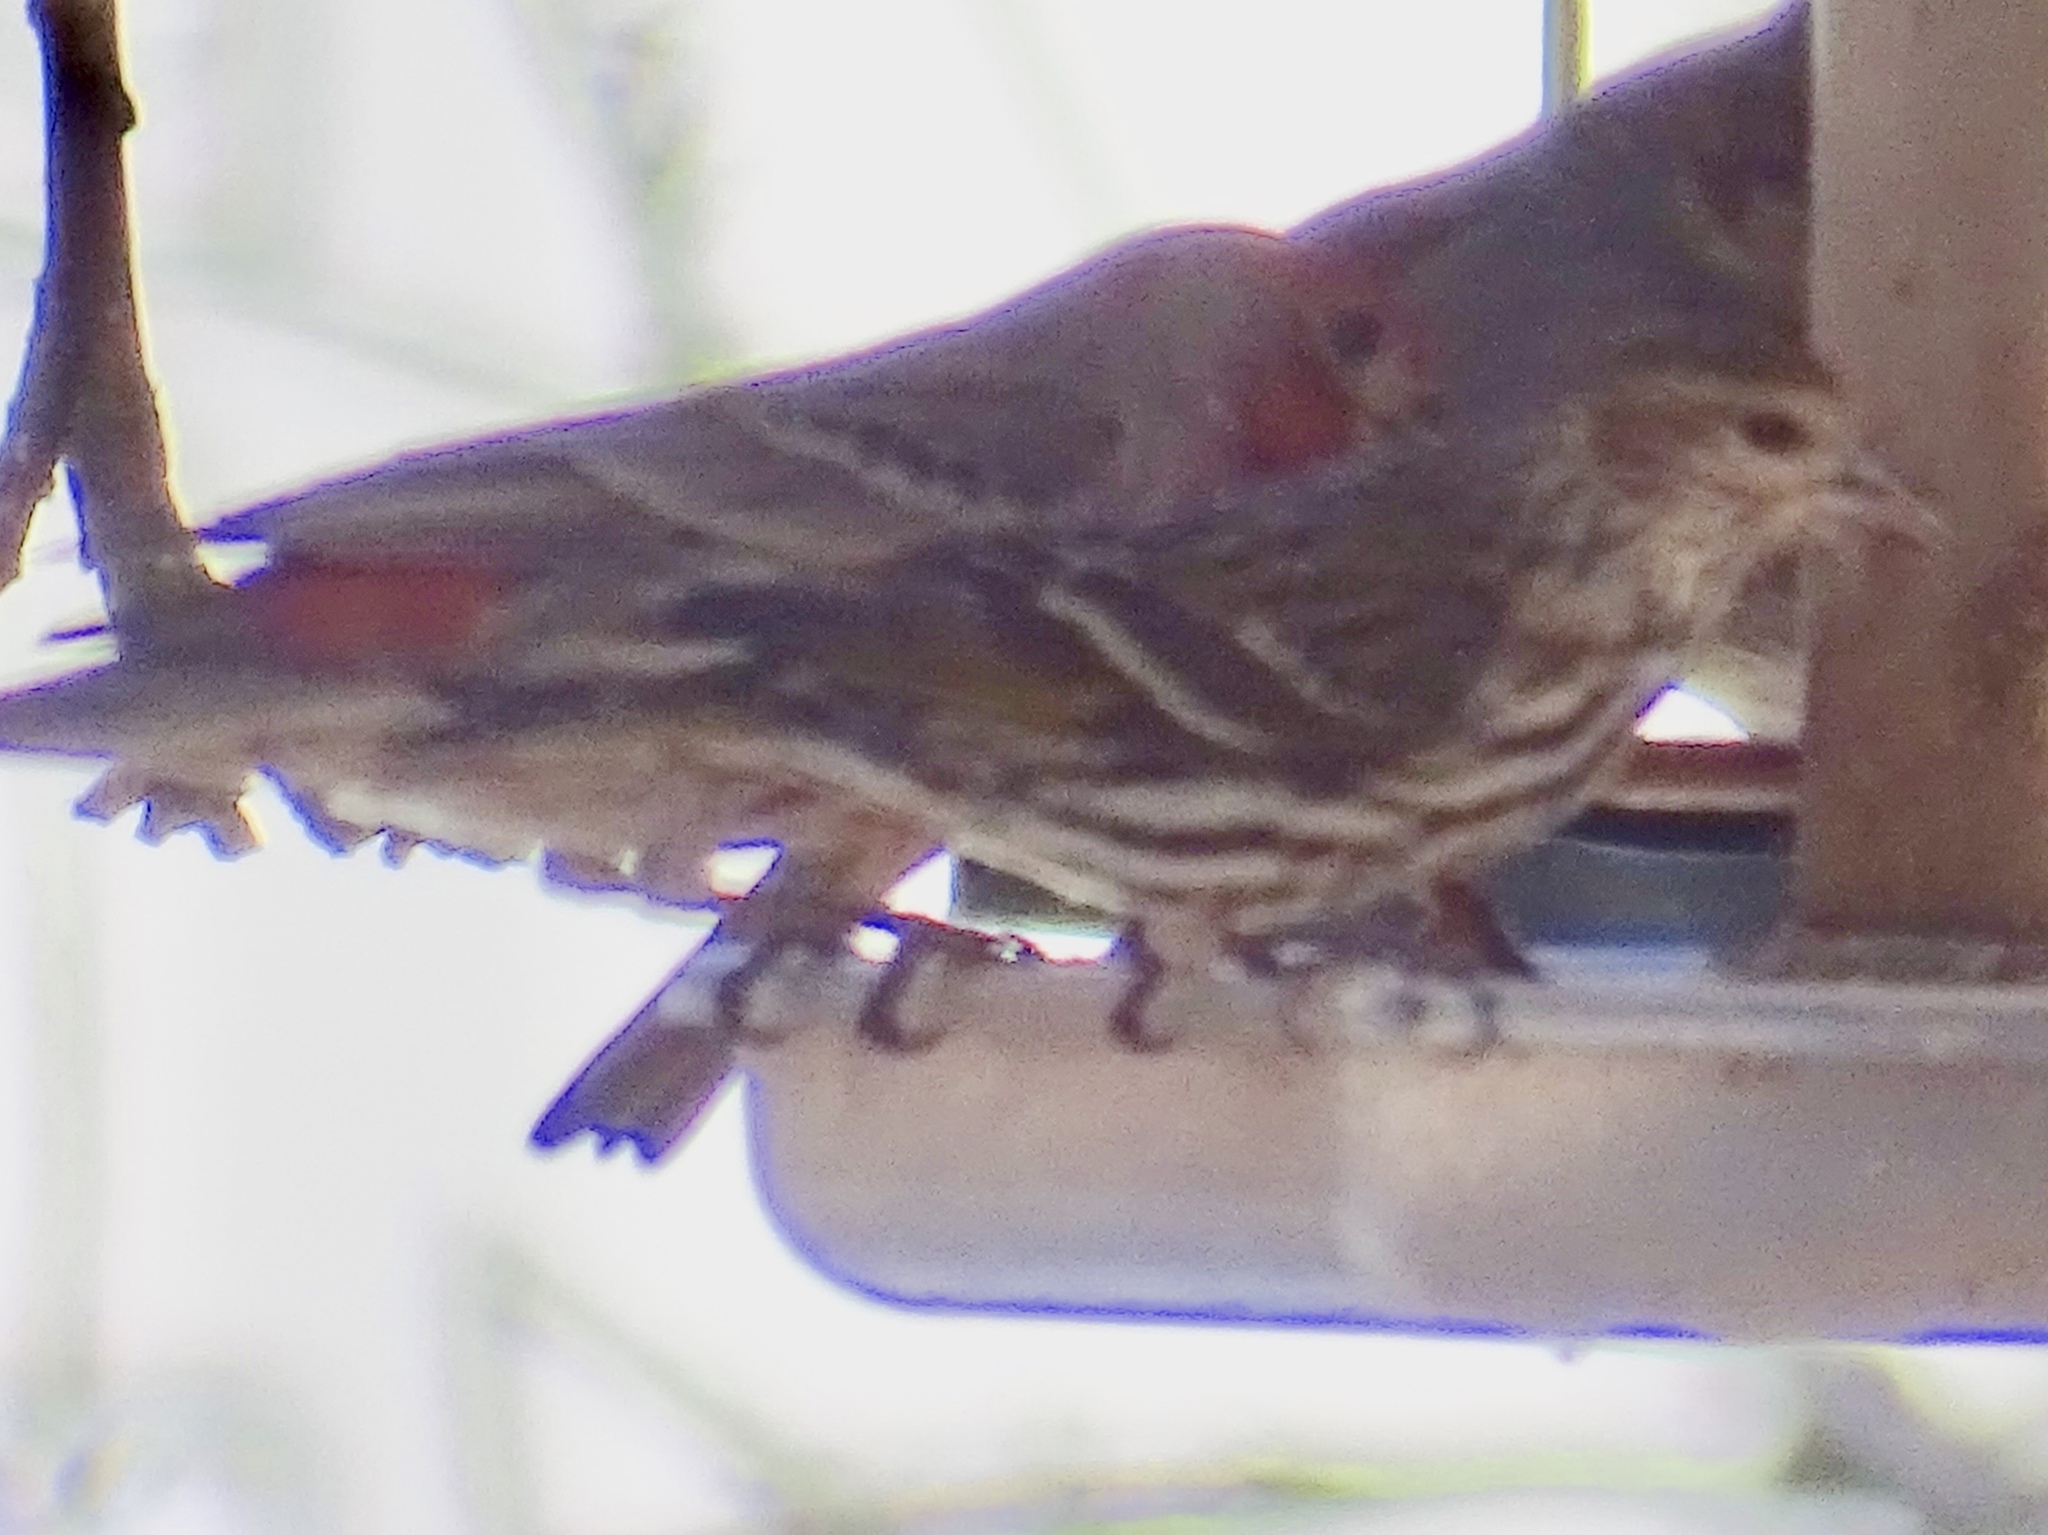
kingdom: Animalia
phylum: Chordata
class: Aves
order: Passeriformes
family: Fringillidae
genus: Spinus
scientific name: Spinus pinus
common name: Pine siskin
